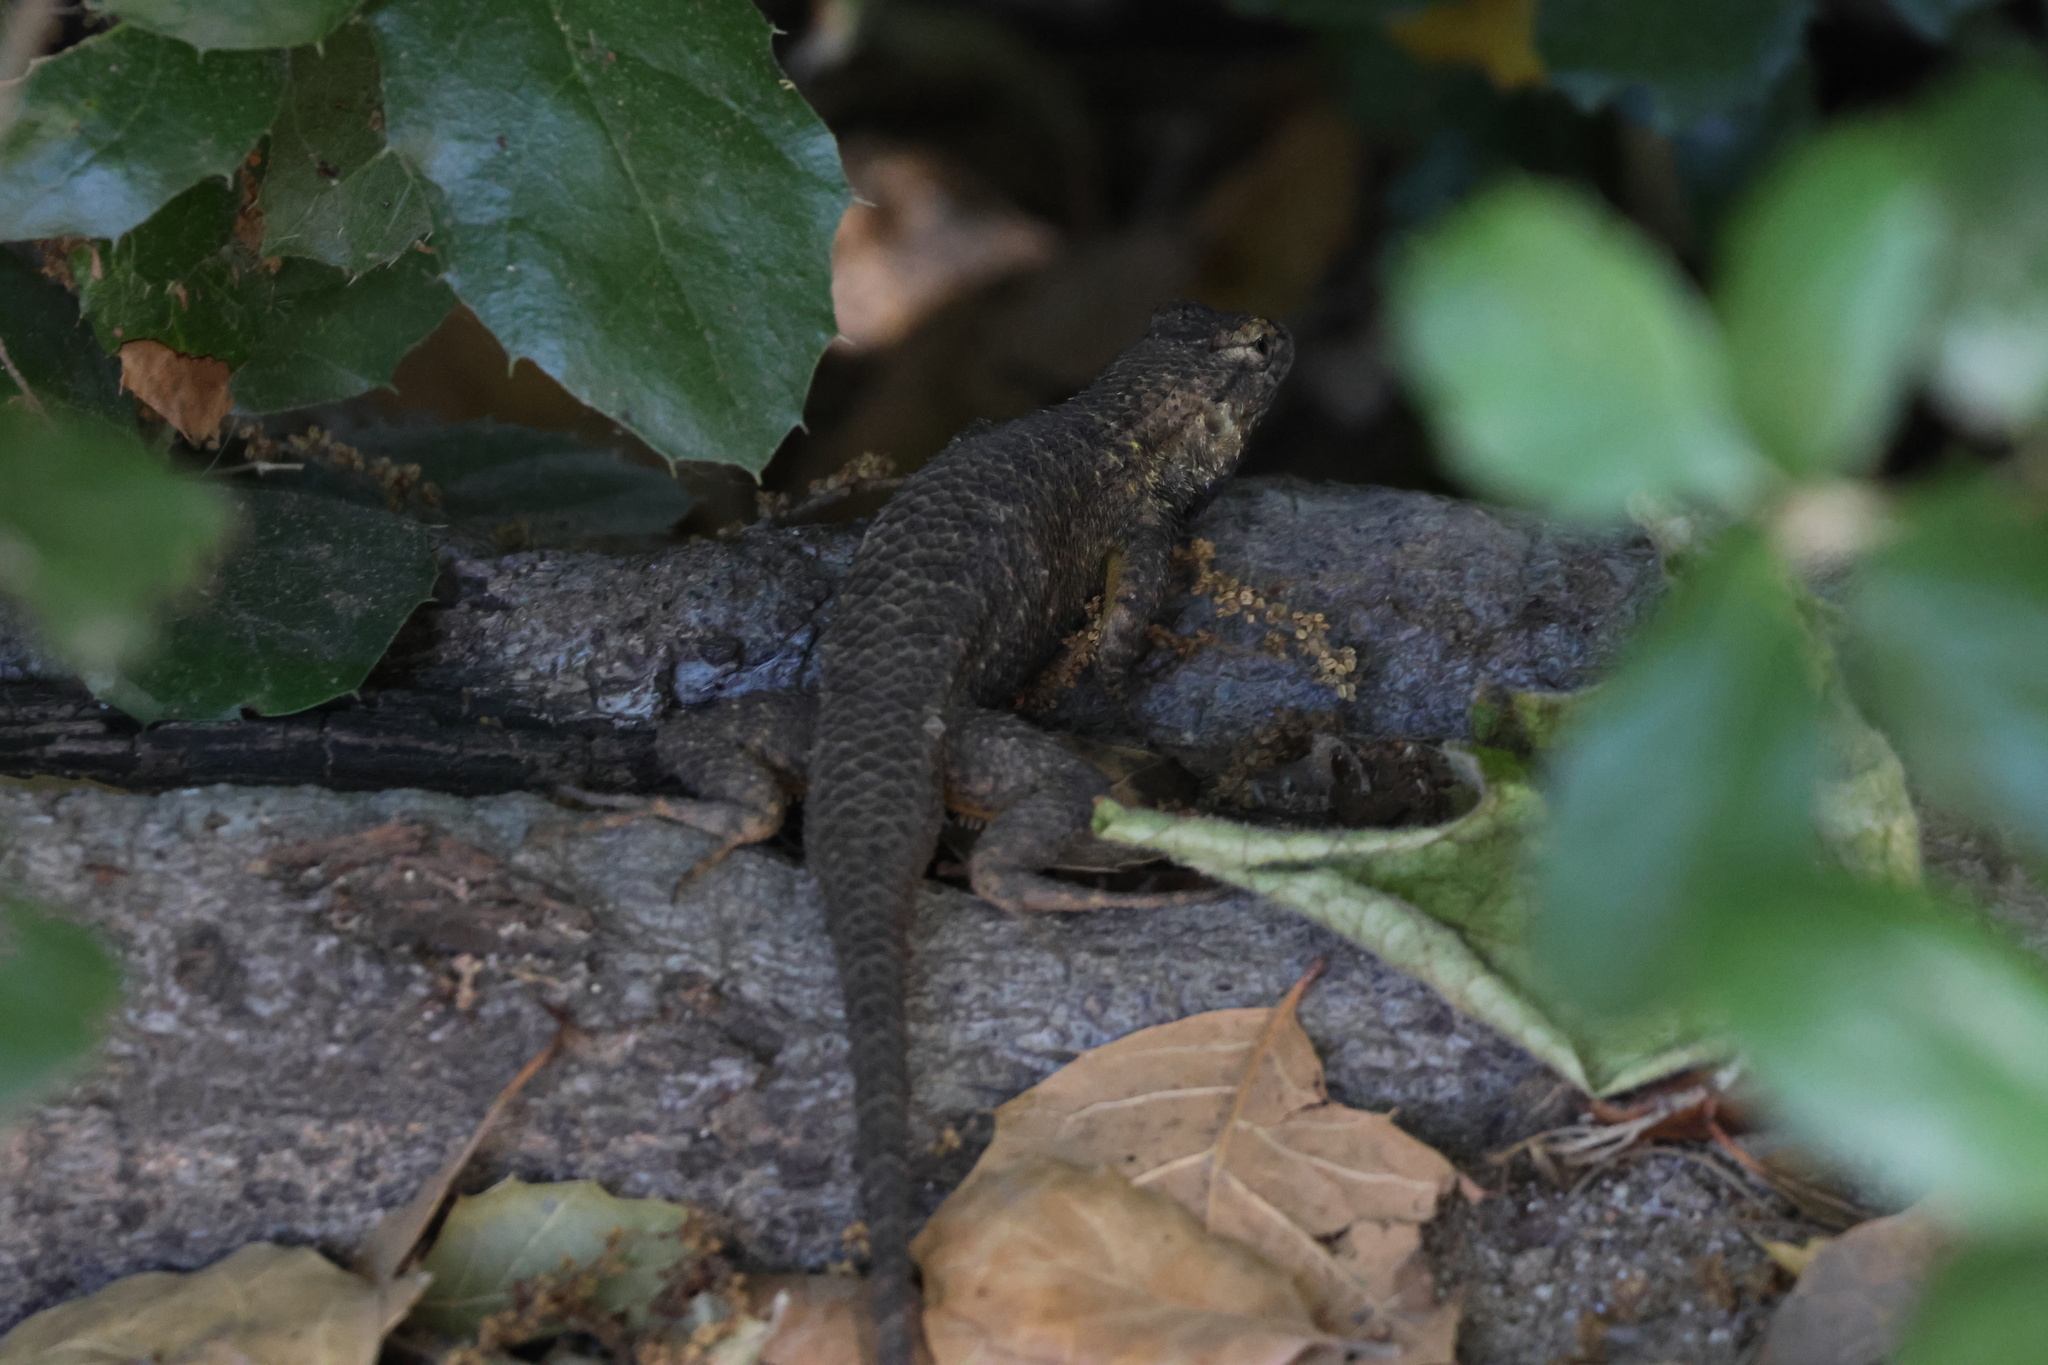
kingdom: Animalia
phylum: Chordata
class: Squamata
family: Phrynosomatidae
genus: Sceloporus
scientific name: Sceloporus occidentalis
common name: Western fence lizard
